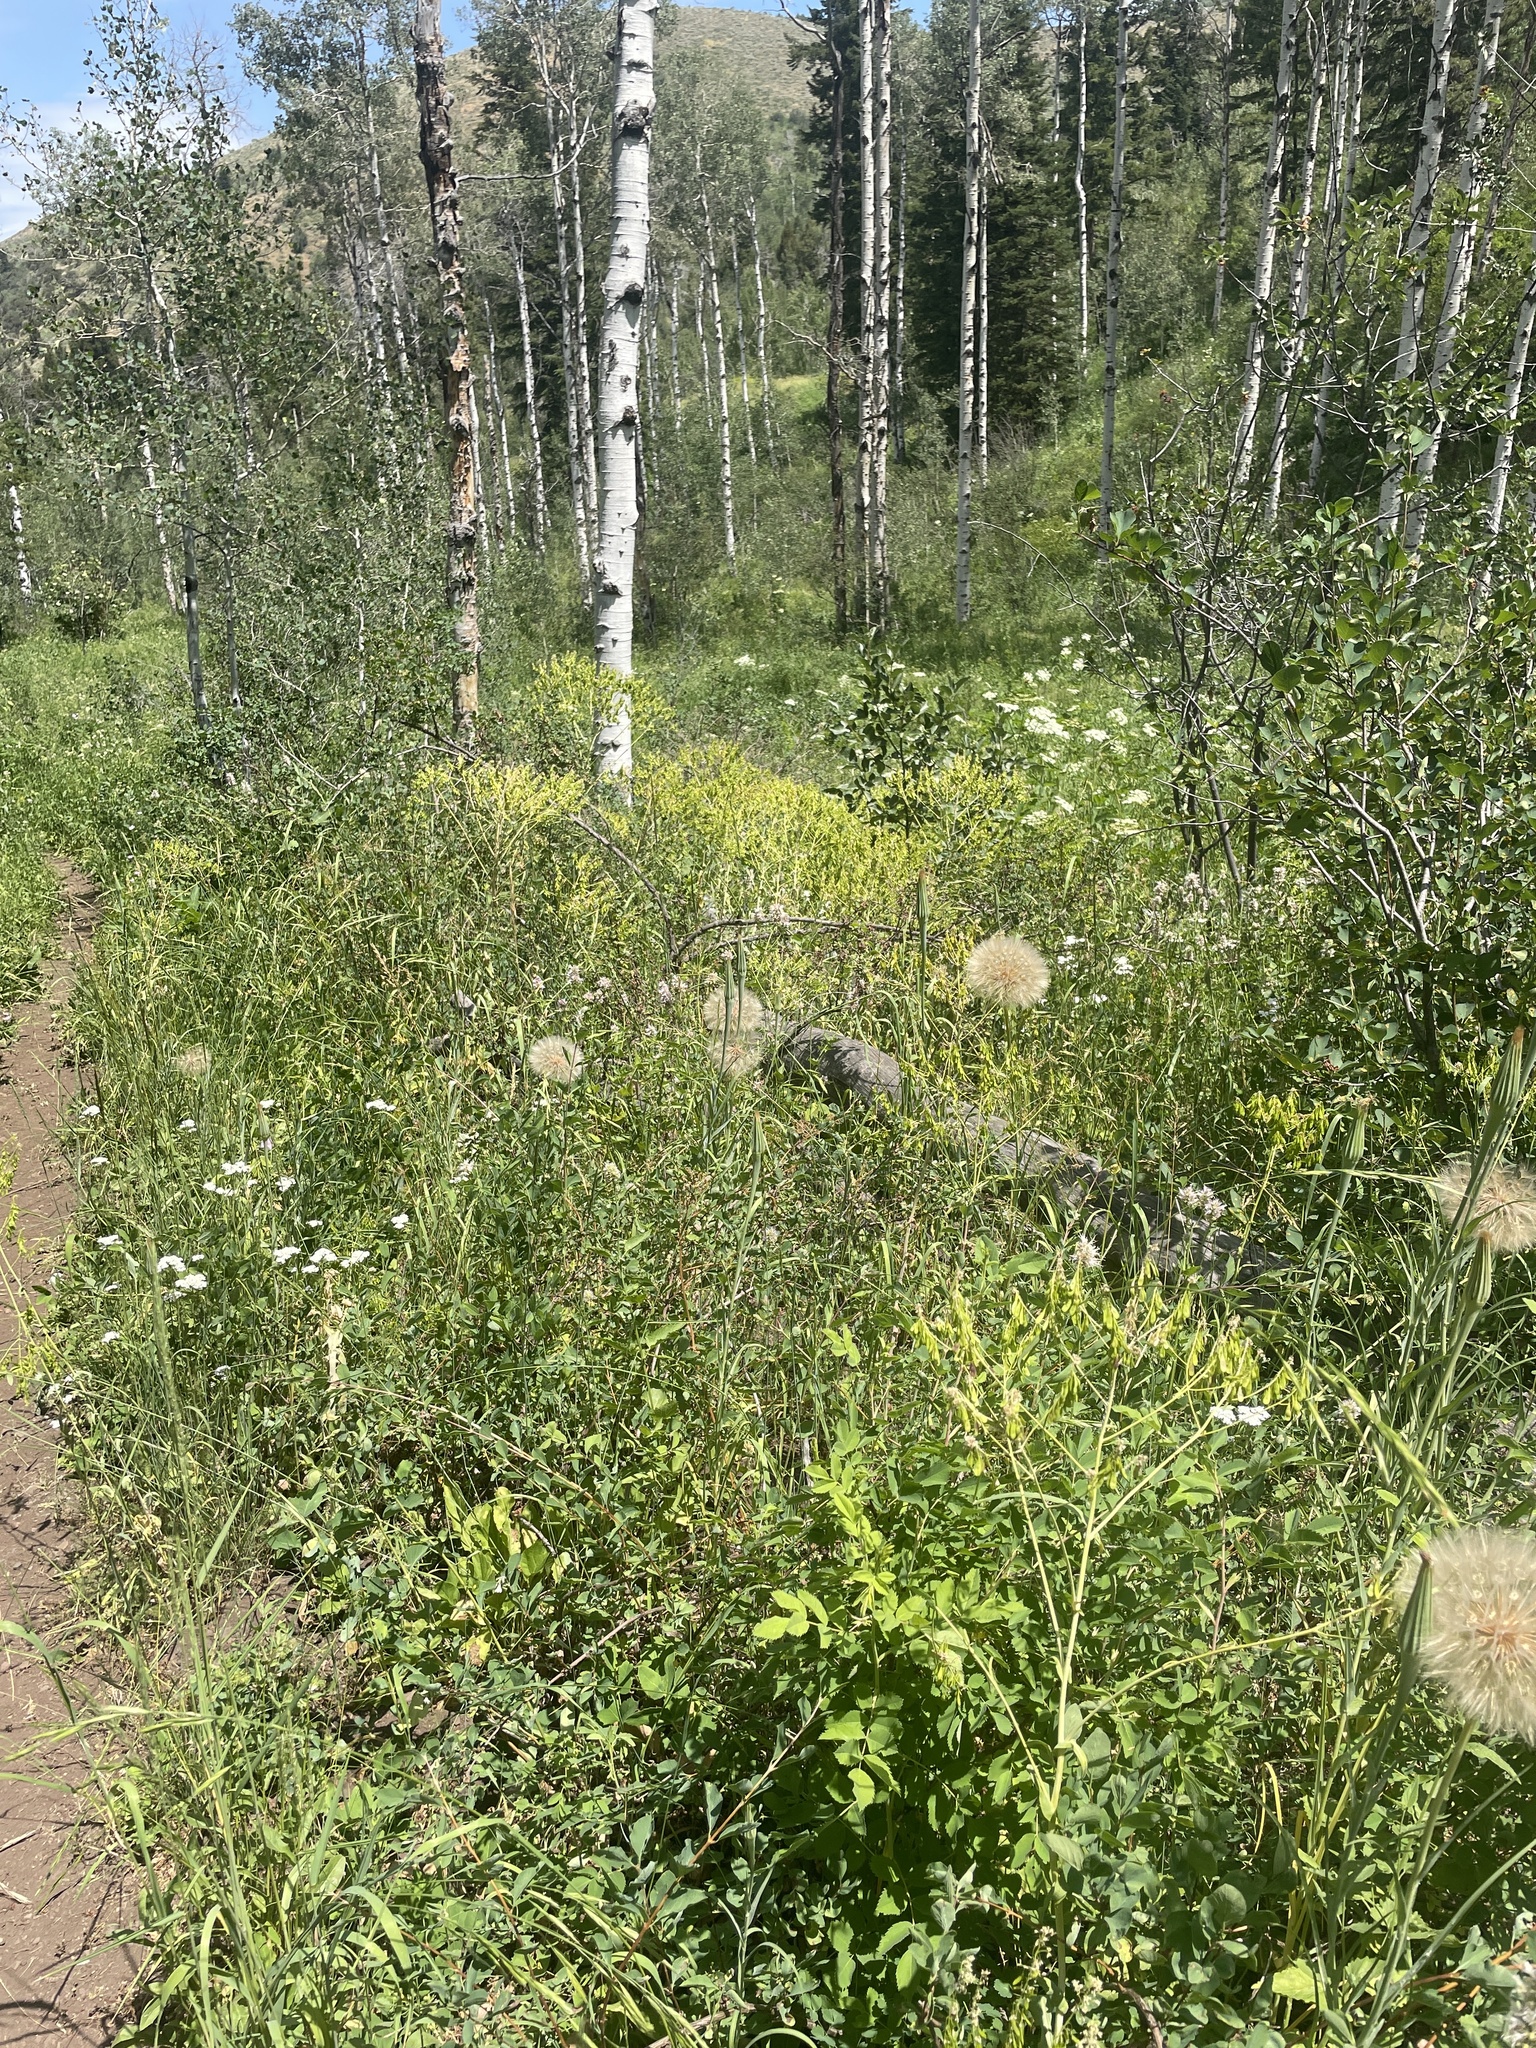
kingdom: Plantae
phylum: Tracheophyta
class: Magnoliopsida
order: Brassicales
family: Brassicaceae
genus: Isatis
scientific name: Isatis tinctoria
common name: Woad
